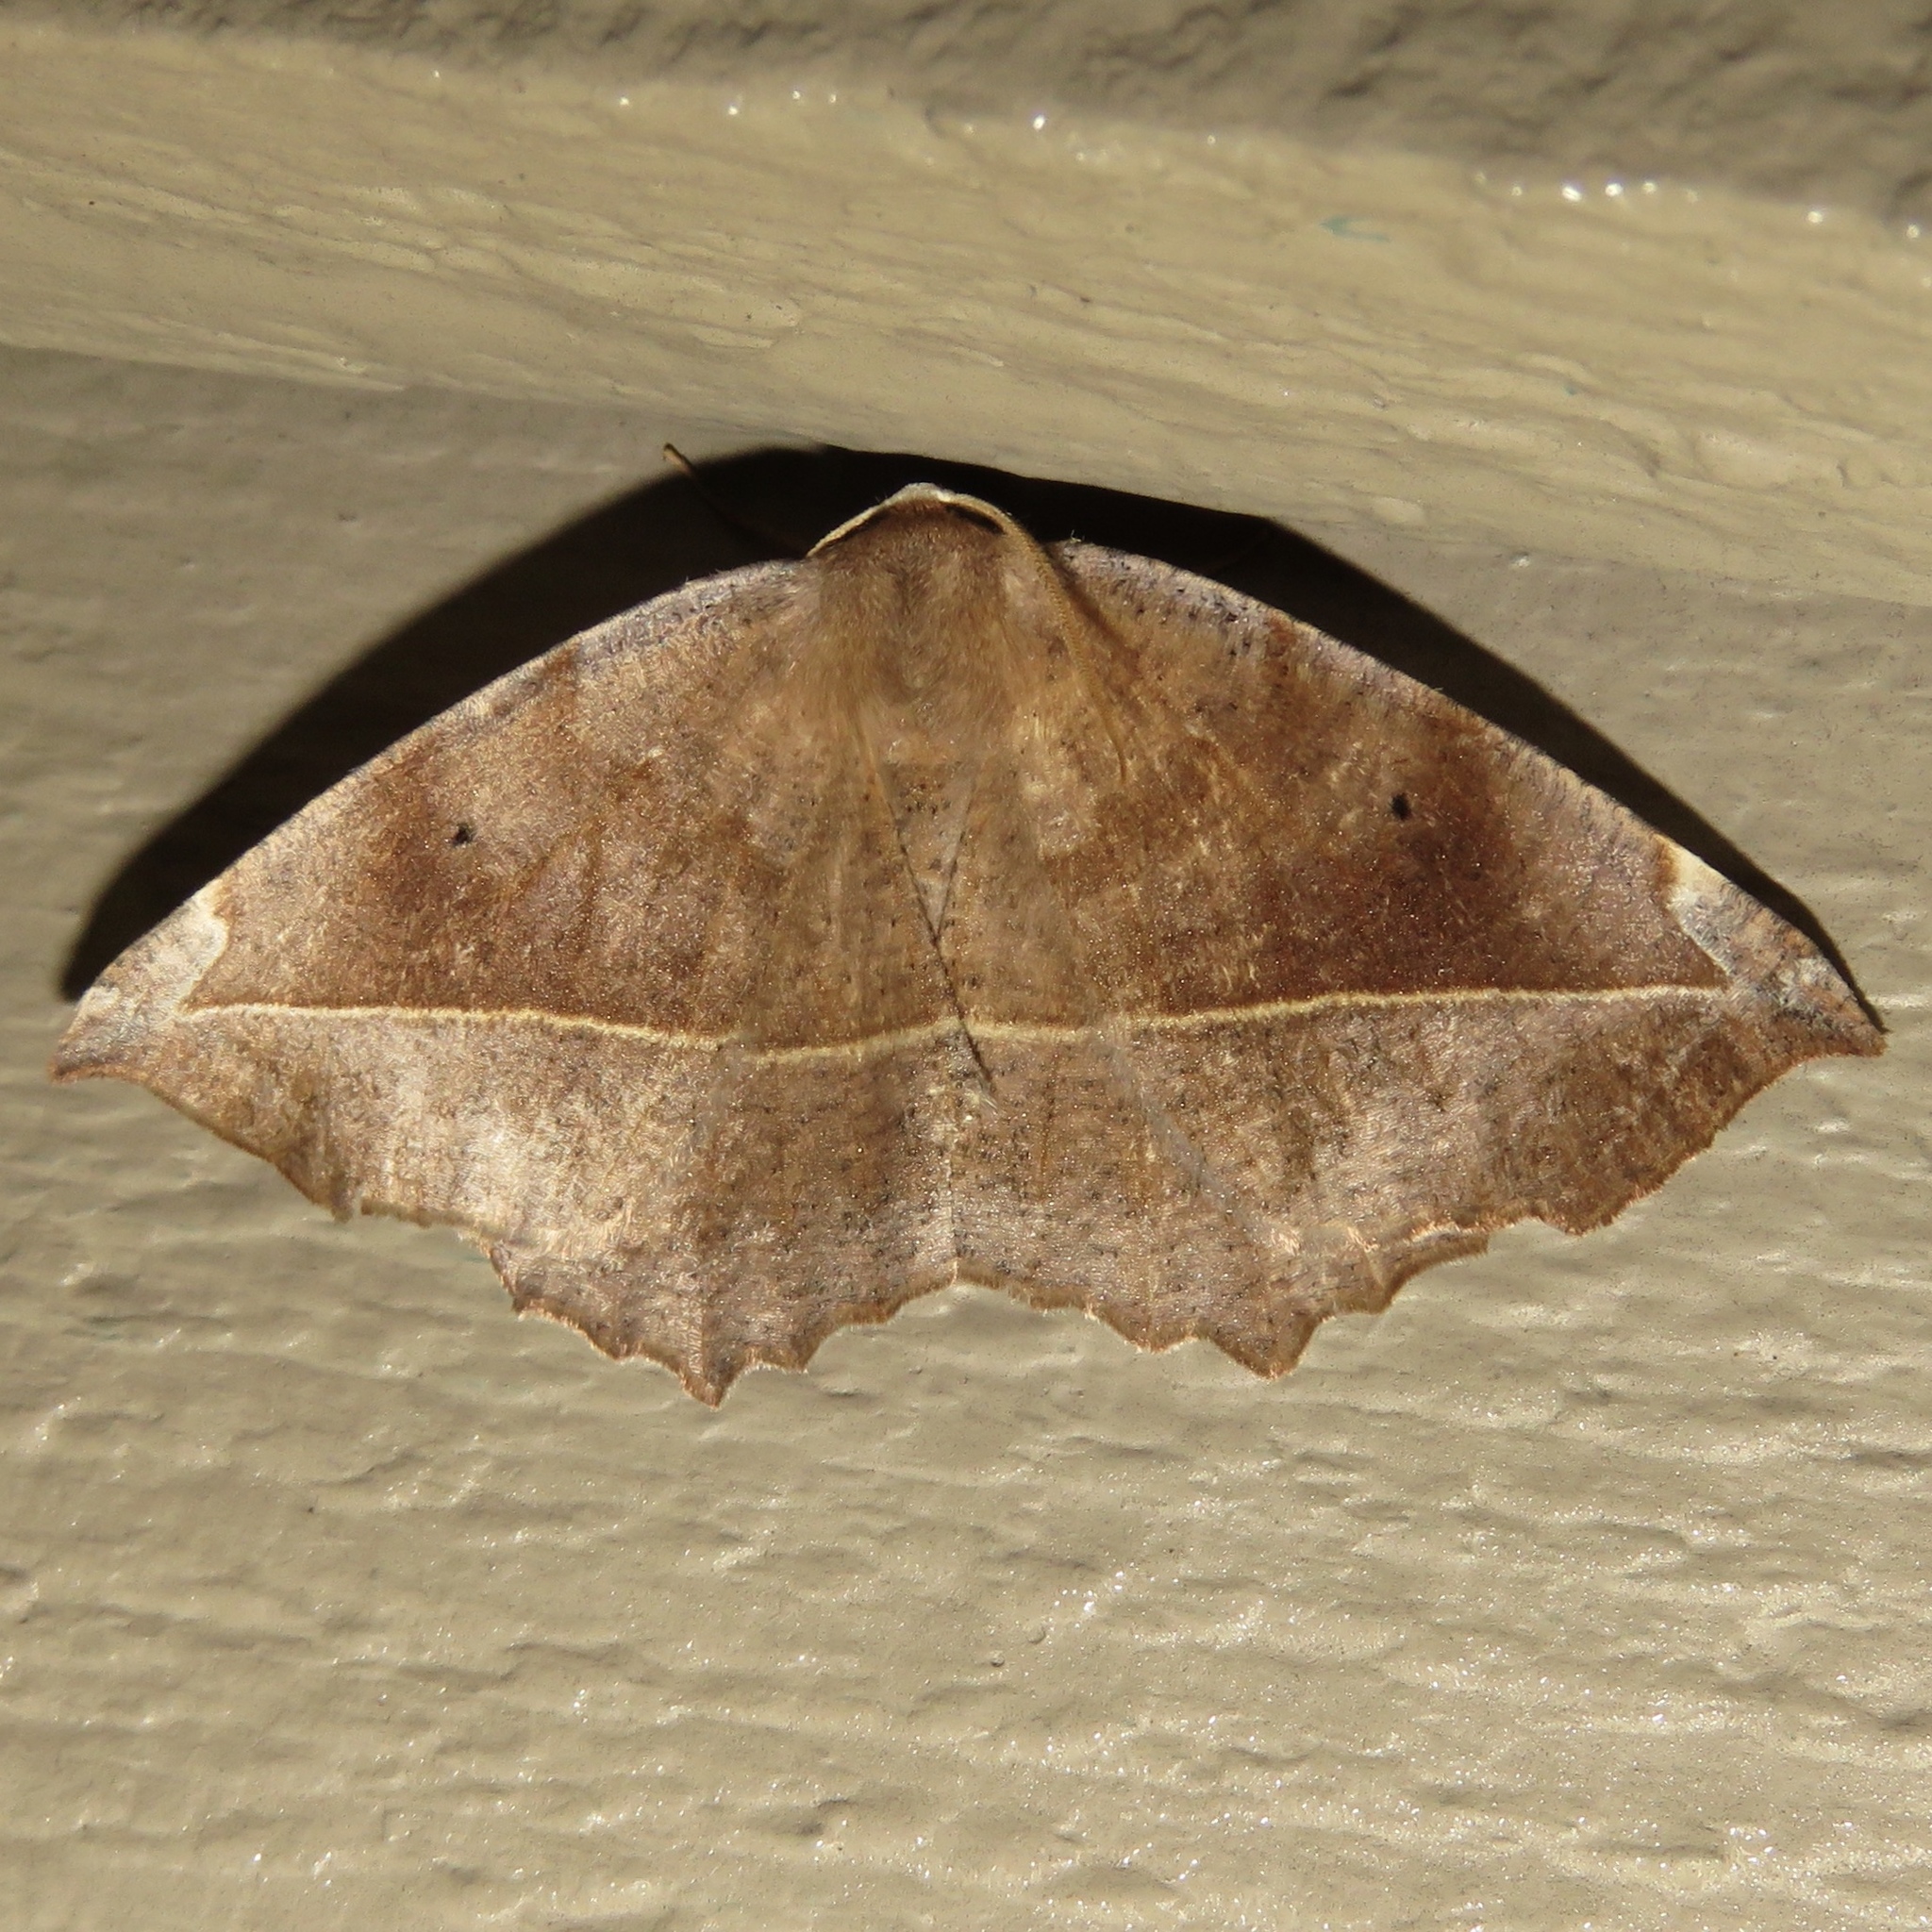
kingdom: Animalia
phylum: Arthropoda
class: Insecta
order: Lepidoptera
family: Geometridae
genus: Eutrapela
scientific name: Eutrapela clemataria
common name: Curved-toothed geometer
